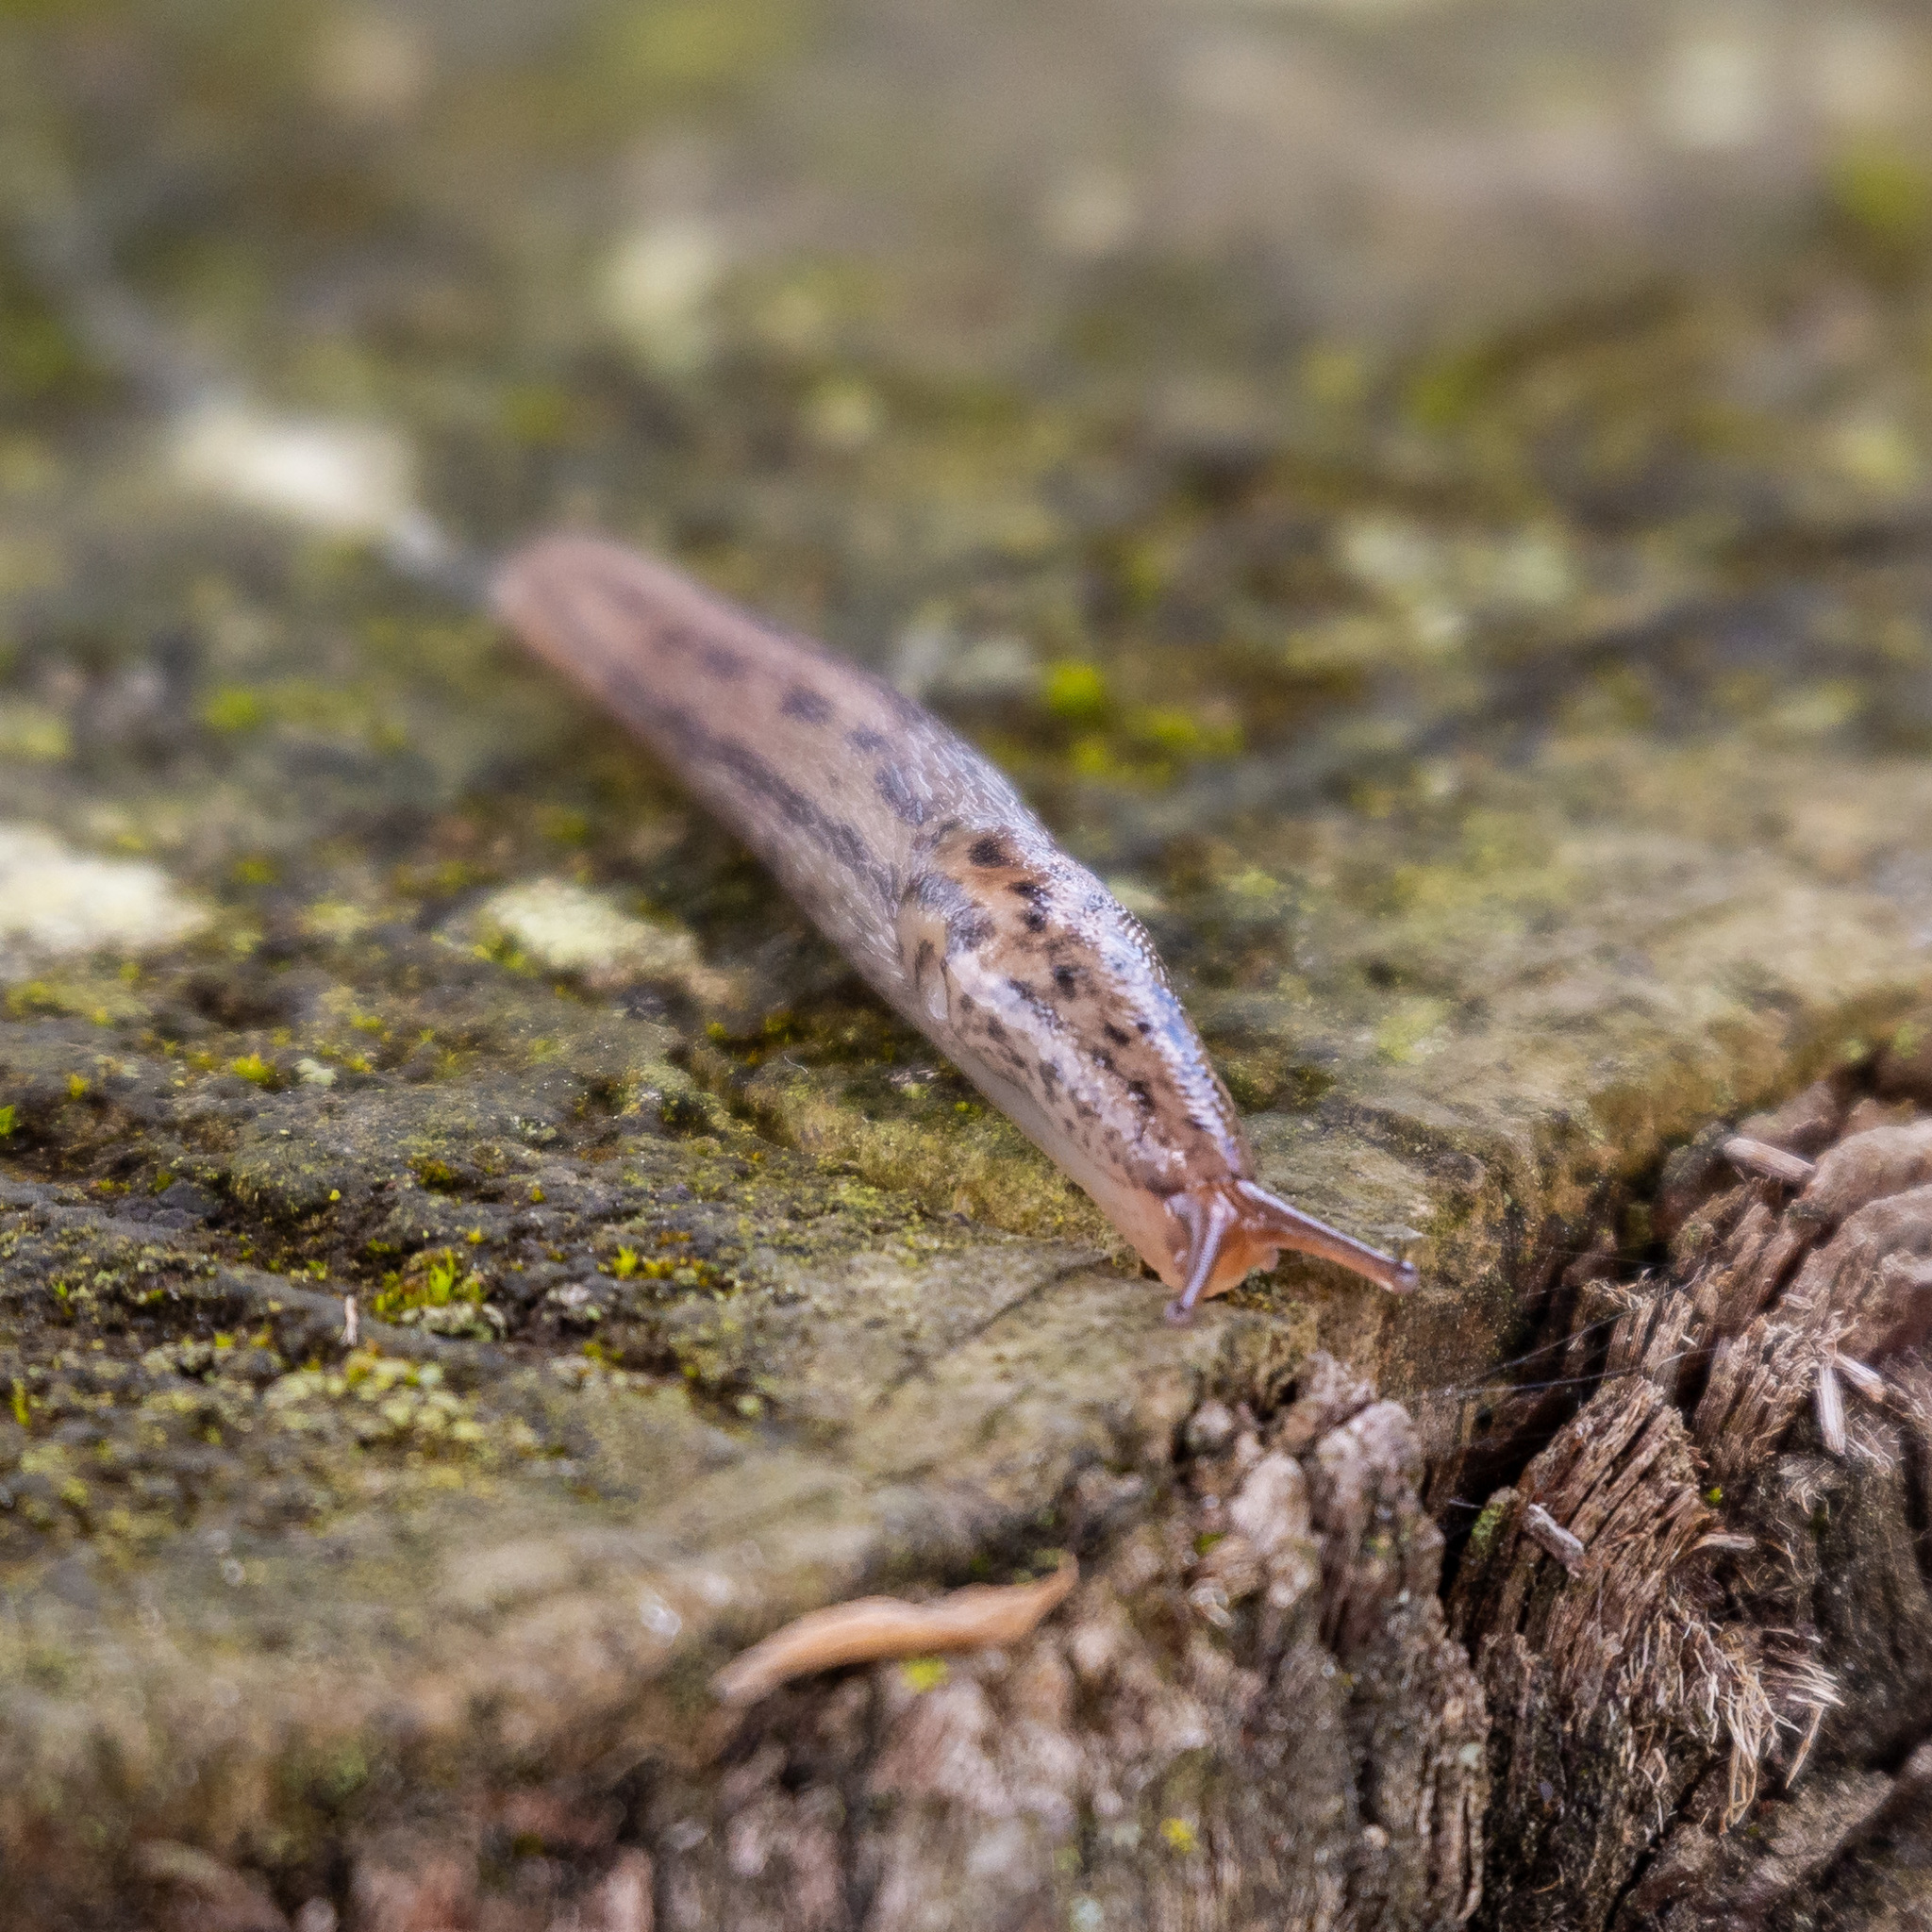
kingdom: Animalia
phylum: Mollusca
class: Gastropoda
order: Stylommatophora
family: Limacidae
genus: Limax
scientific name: Limax maximus
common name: Great grey slug
